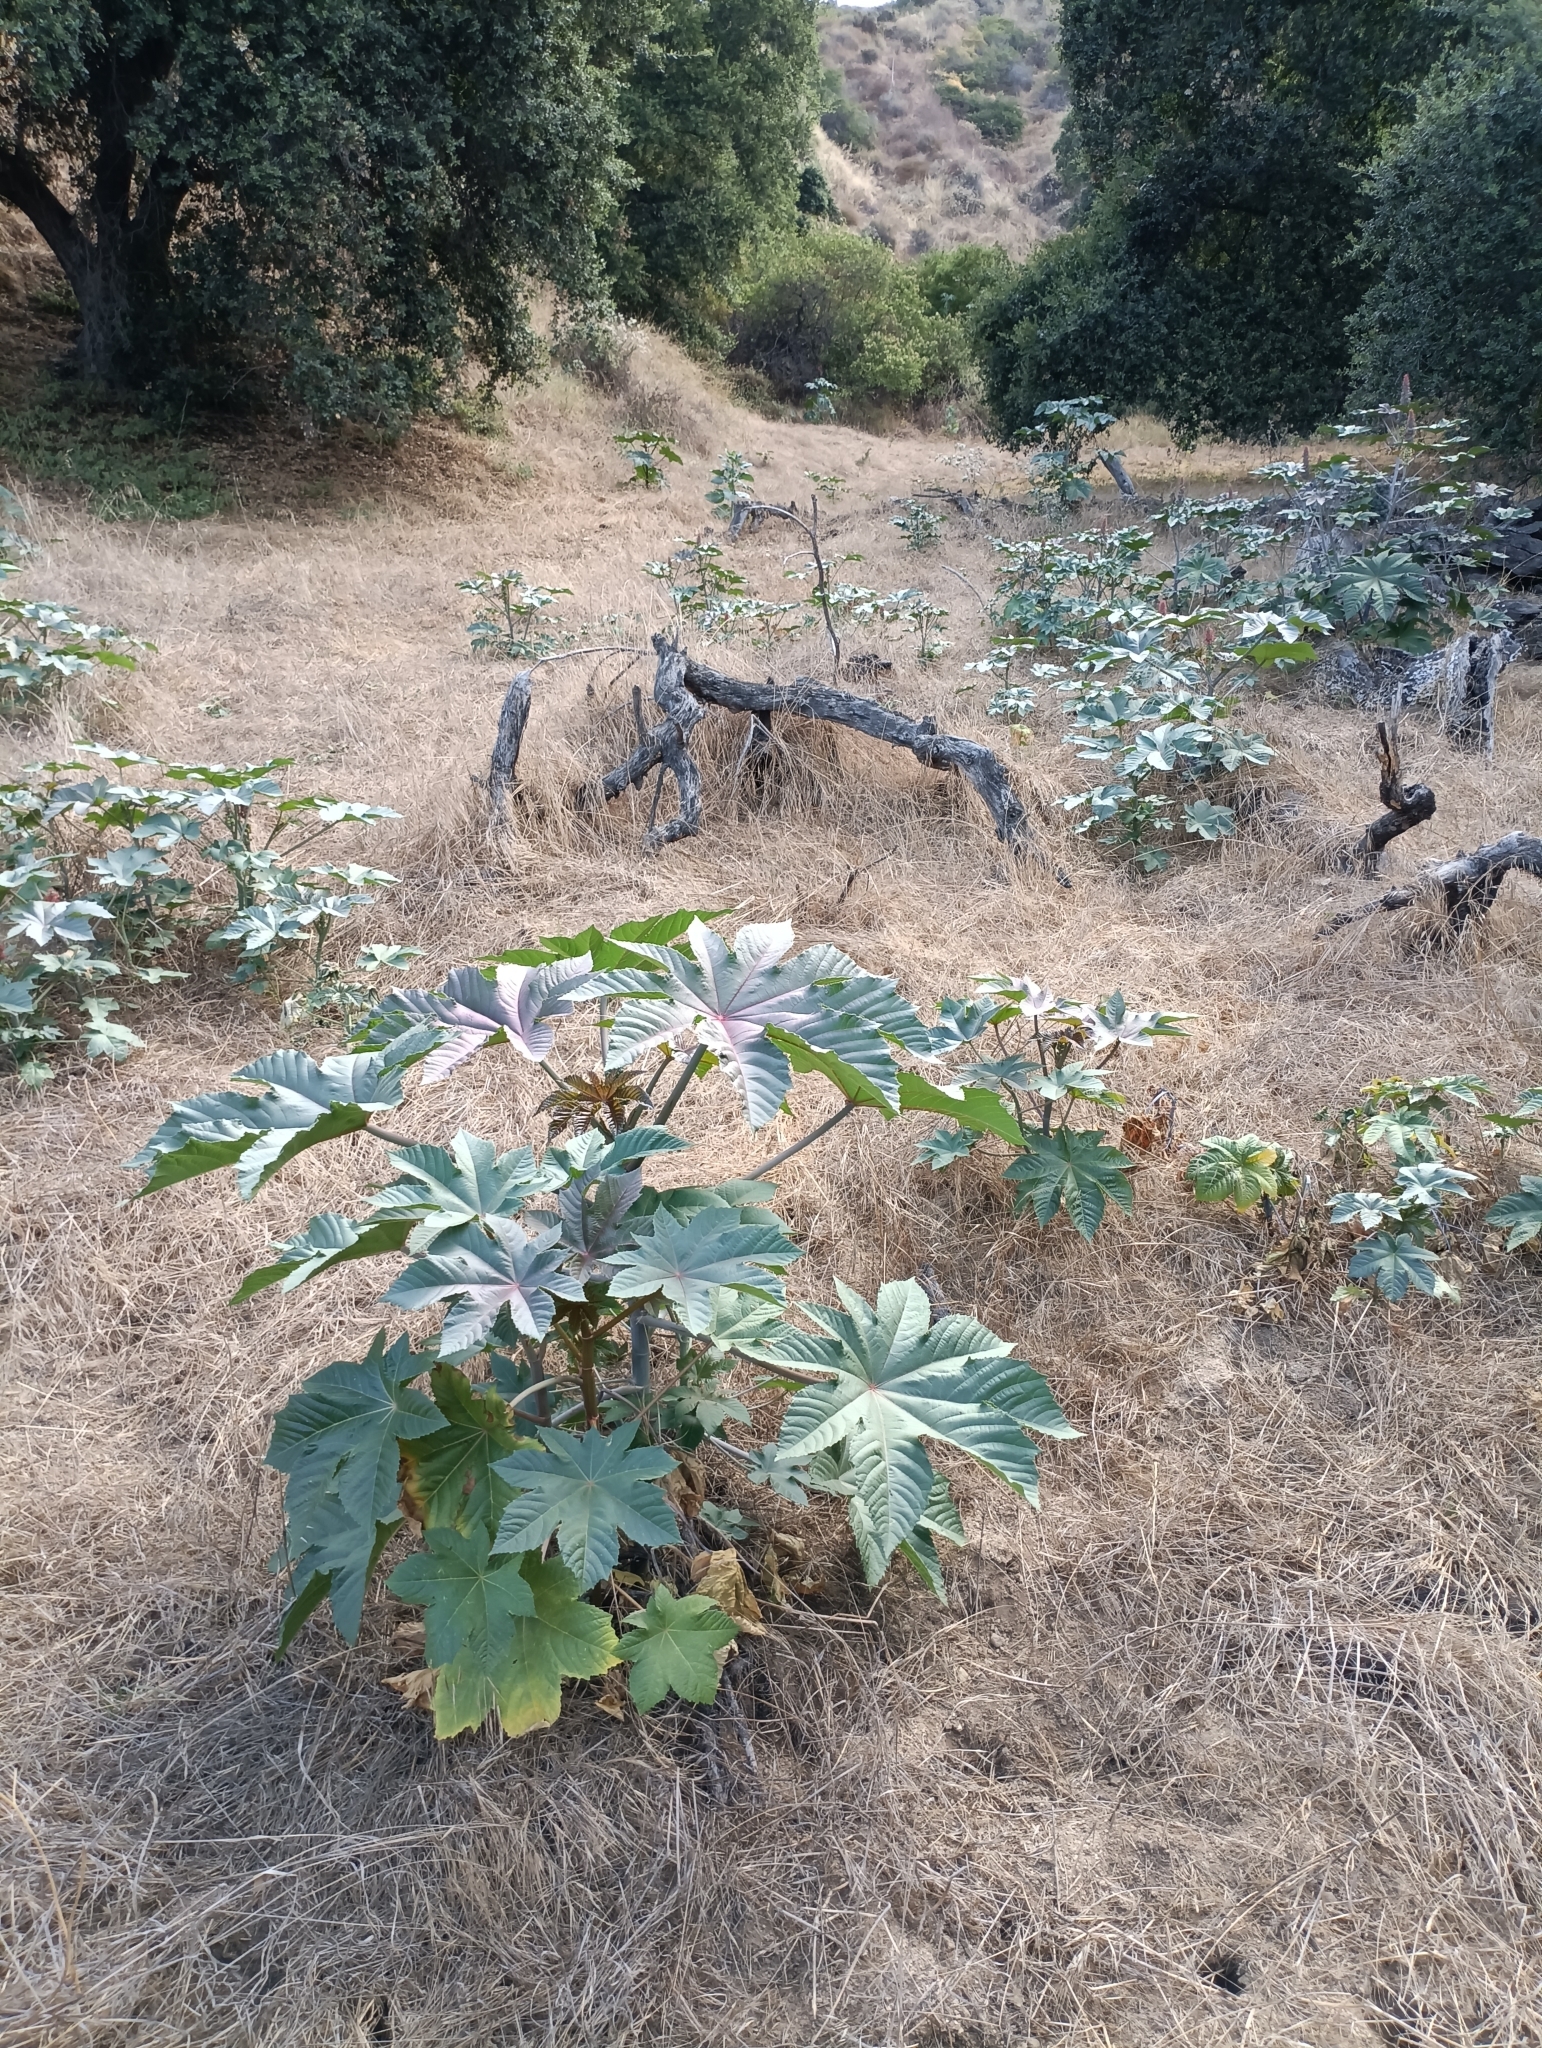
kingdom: Plantae
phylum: Tracheophyta
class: Magnoliopsida
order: Malpighiales
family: Euphorbiaceae
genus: Ricinus
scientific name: Ricinus communis
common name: Castor-oil-plant
